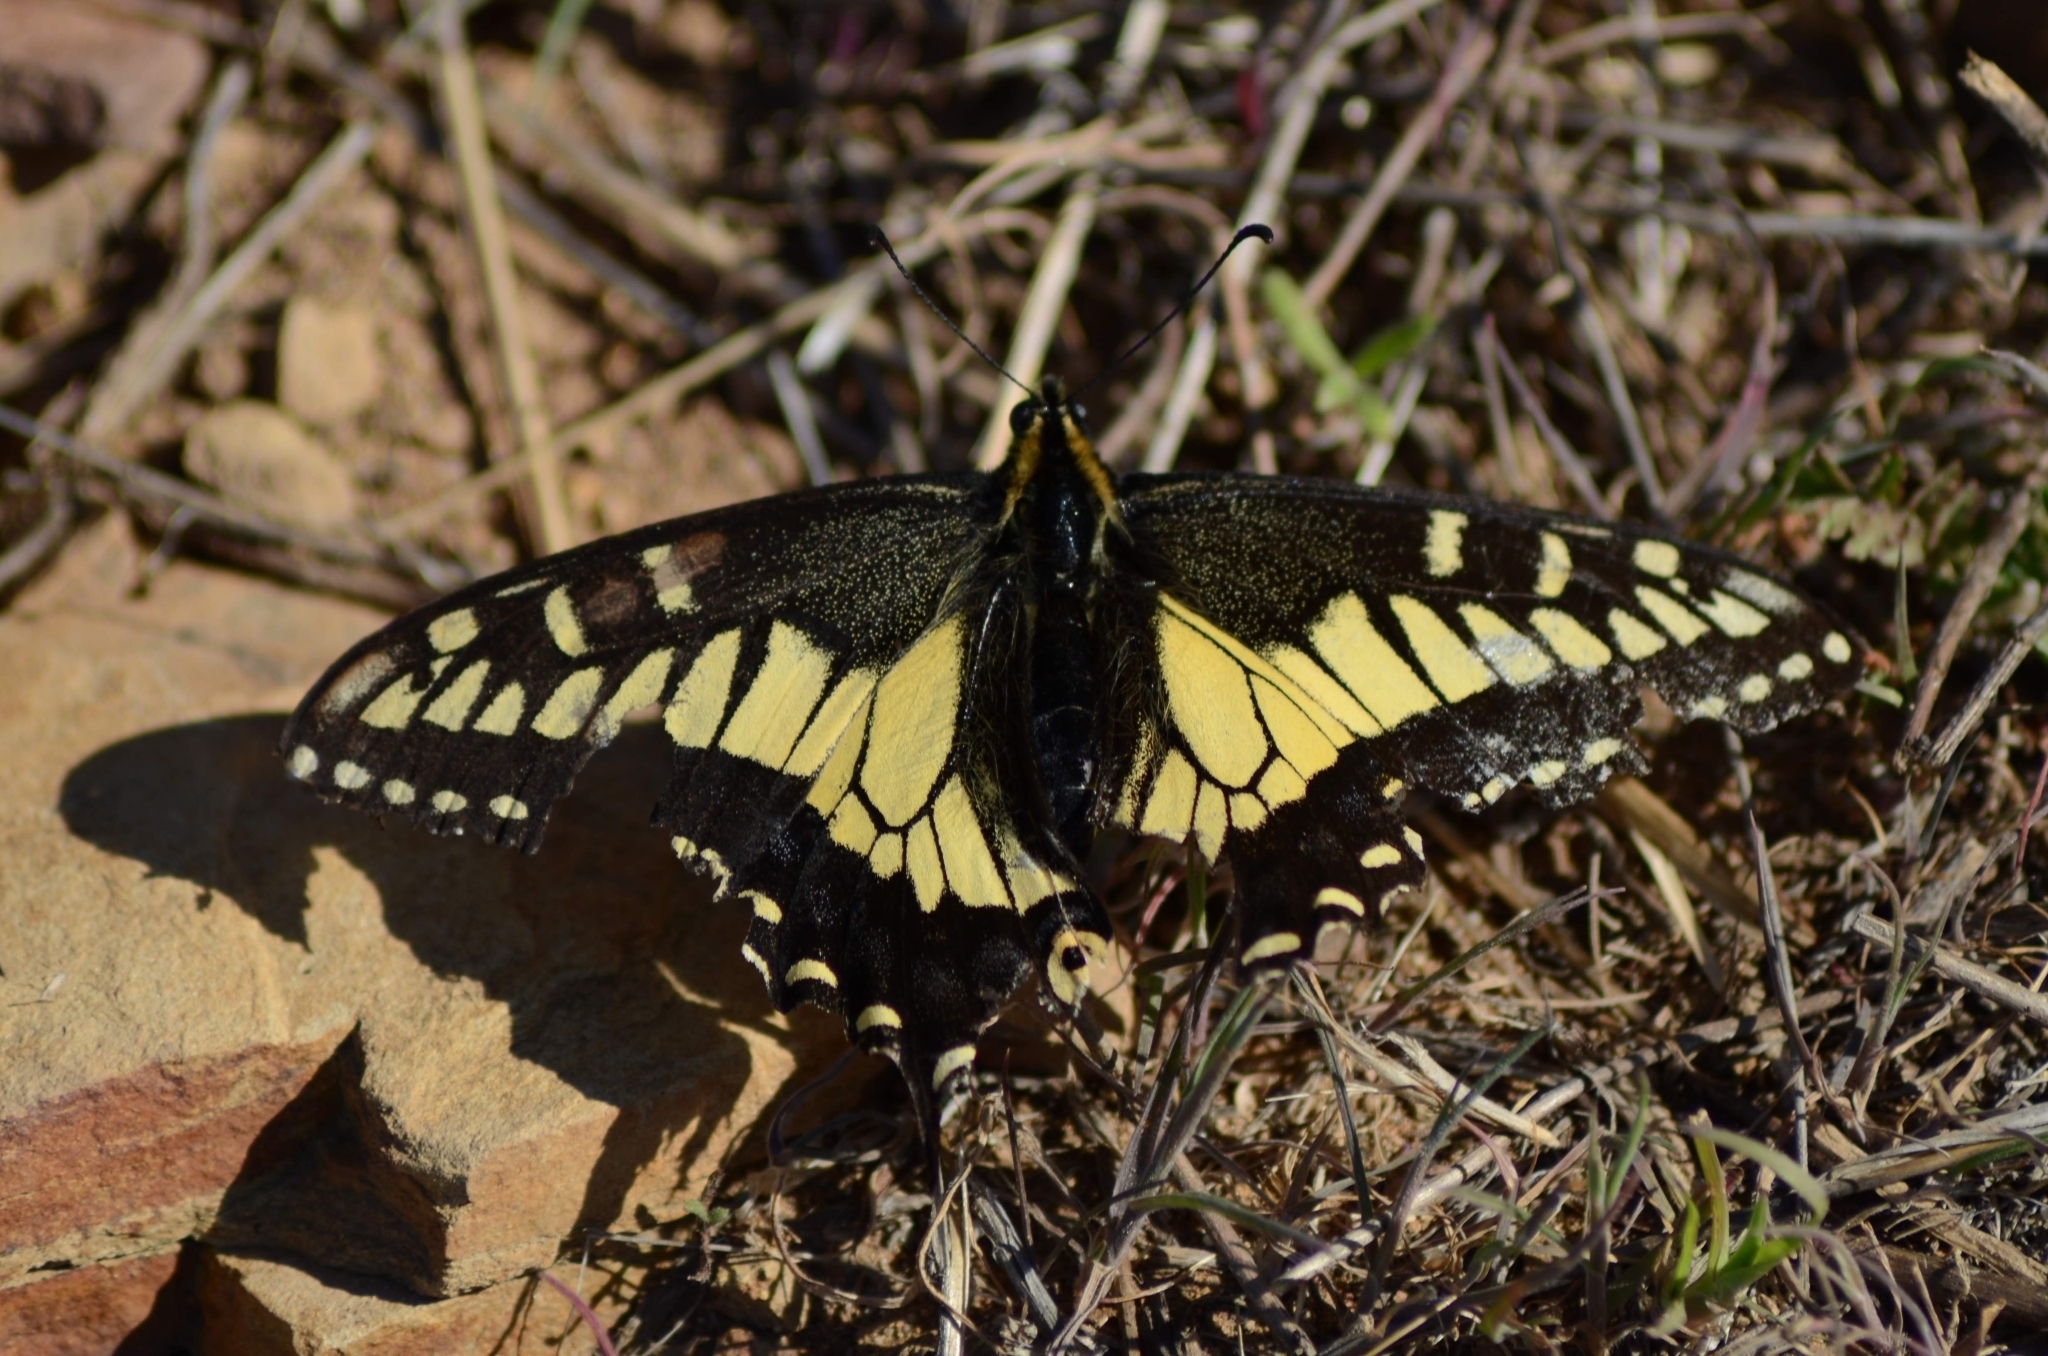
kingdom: Animalia
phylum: Arthropoda
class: Insecta
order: Lepidoptera
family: Papilionidae
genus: Papilio
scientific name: Papilio zelicaon
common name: Anise swallowtail
